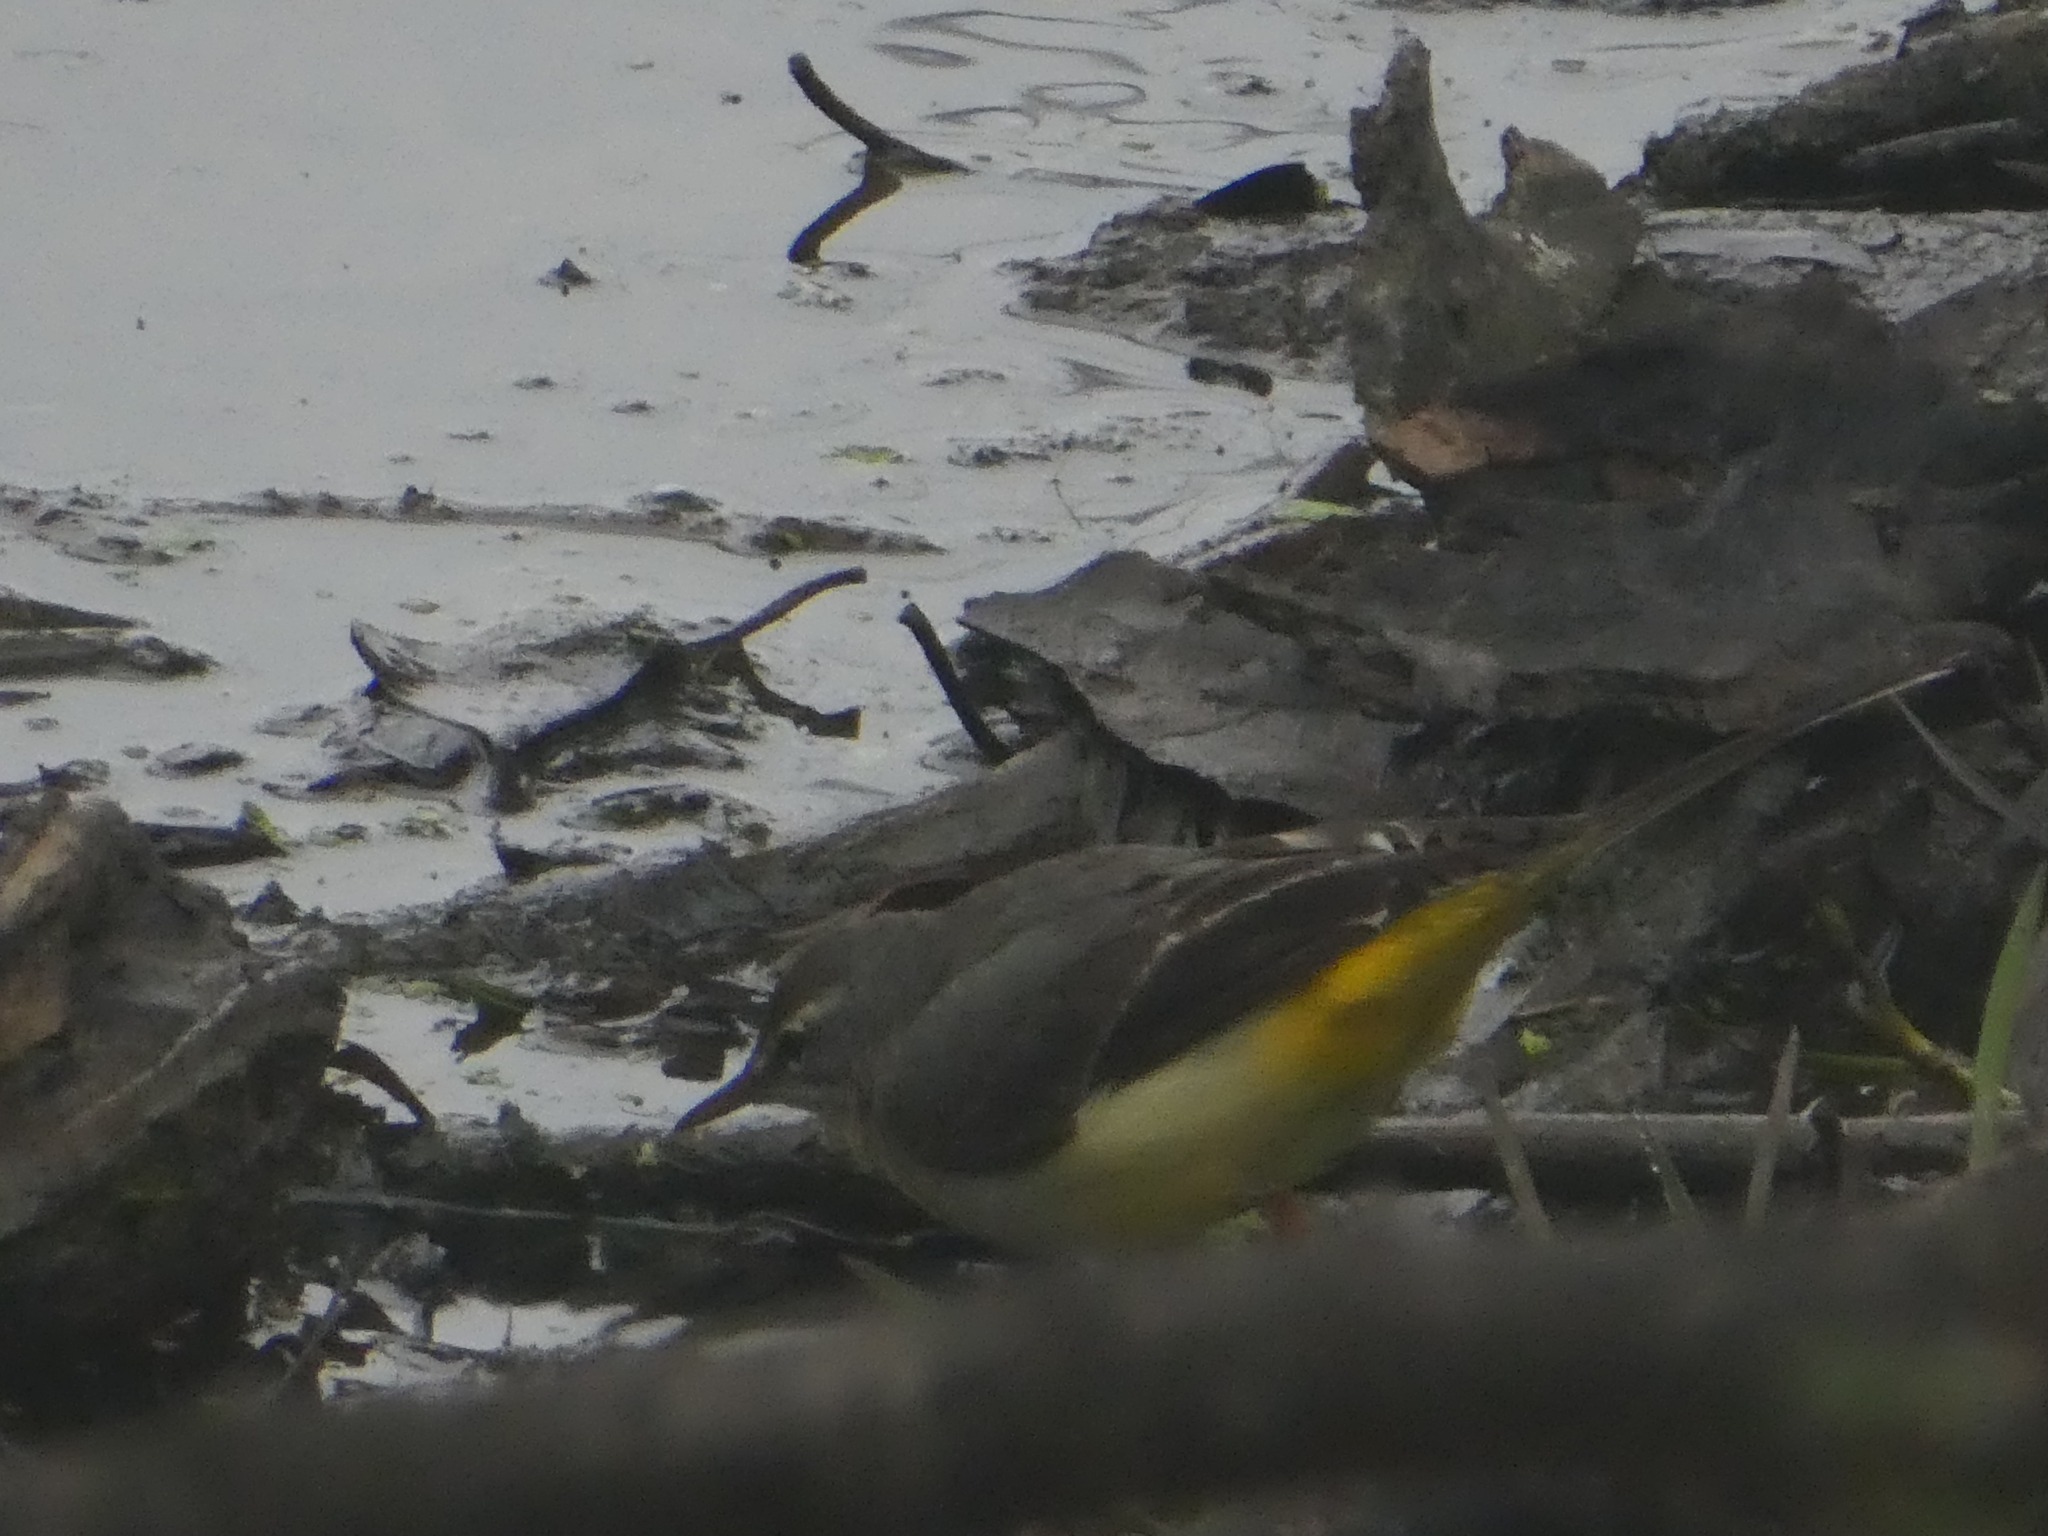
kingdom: Animalia
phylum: Chordata
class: Aves
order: Passeriformes
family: Motacillidae
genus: Motacilla
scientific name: Motacilla cinerea
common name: Grey wagtail
